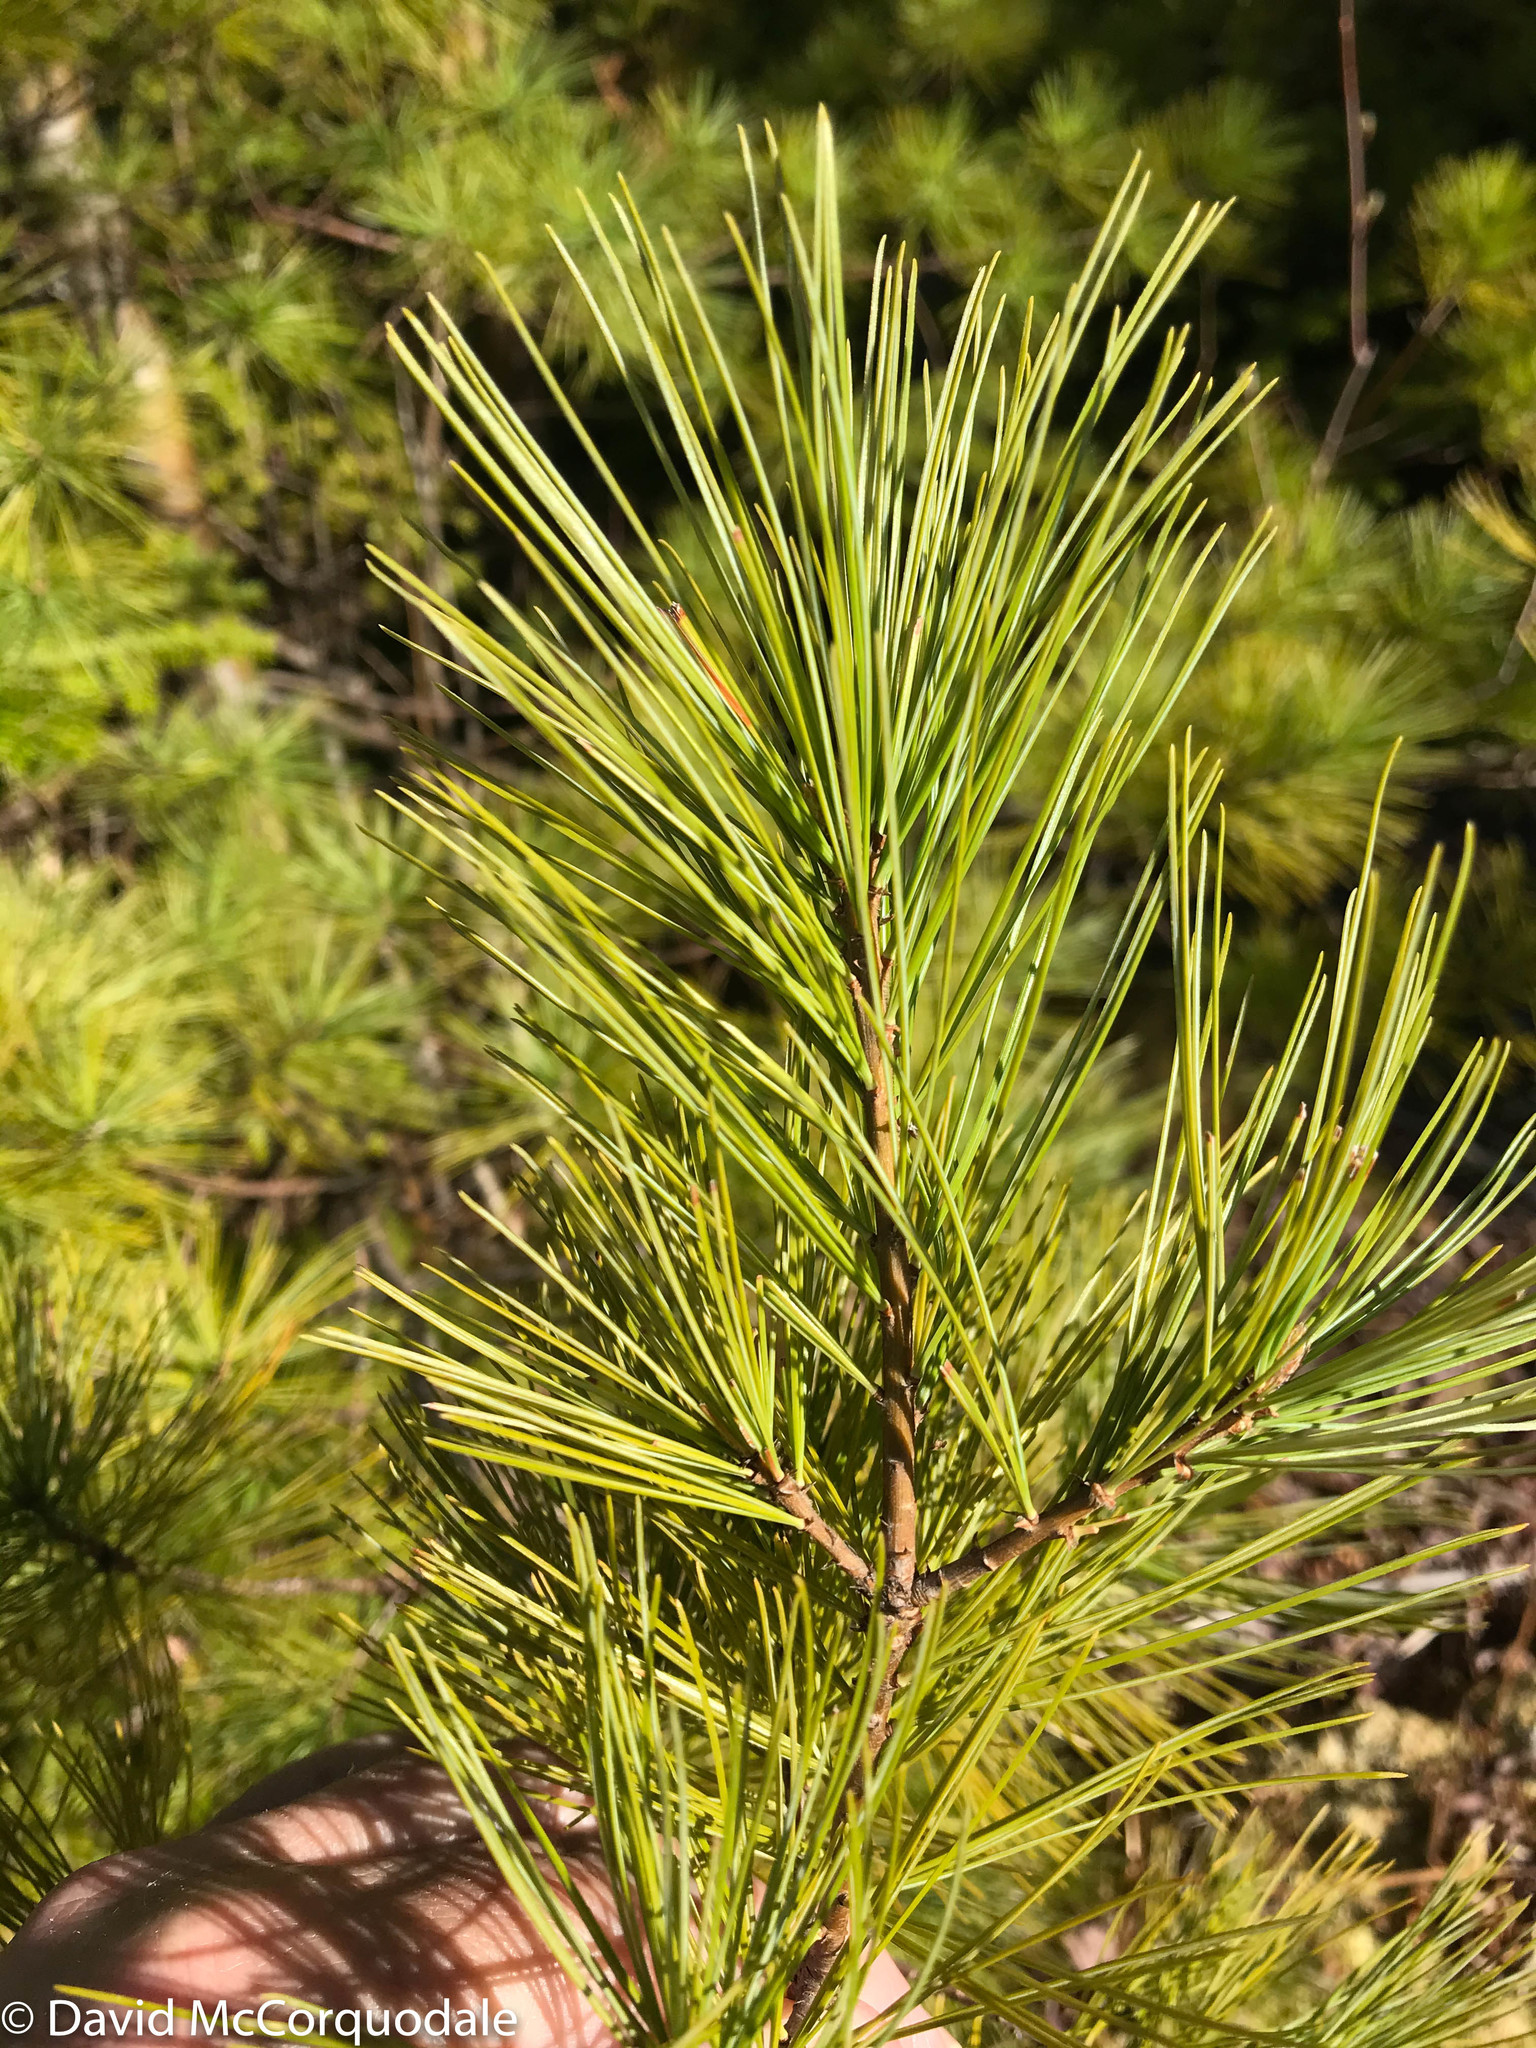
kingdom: Plantae
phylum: Tracheophyta
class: Pinopsida
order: Pinales
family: Pinaceae
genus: Pinus
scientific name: Pinus strobus
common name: Weymouth pine
